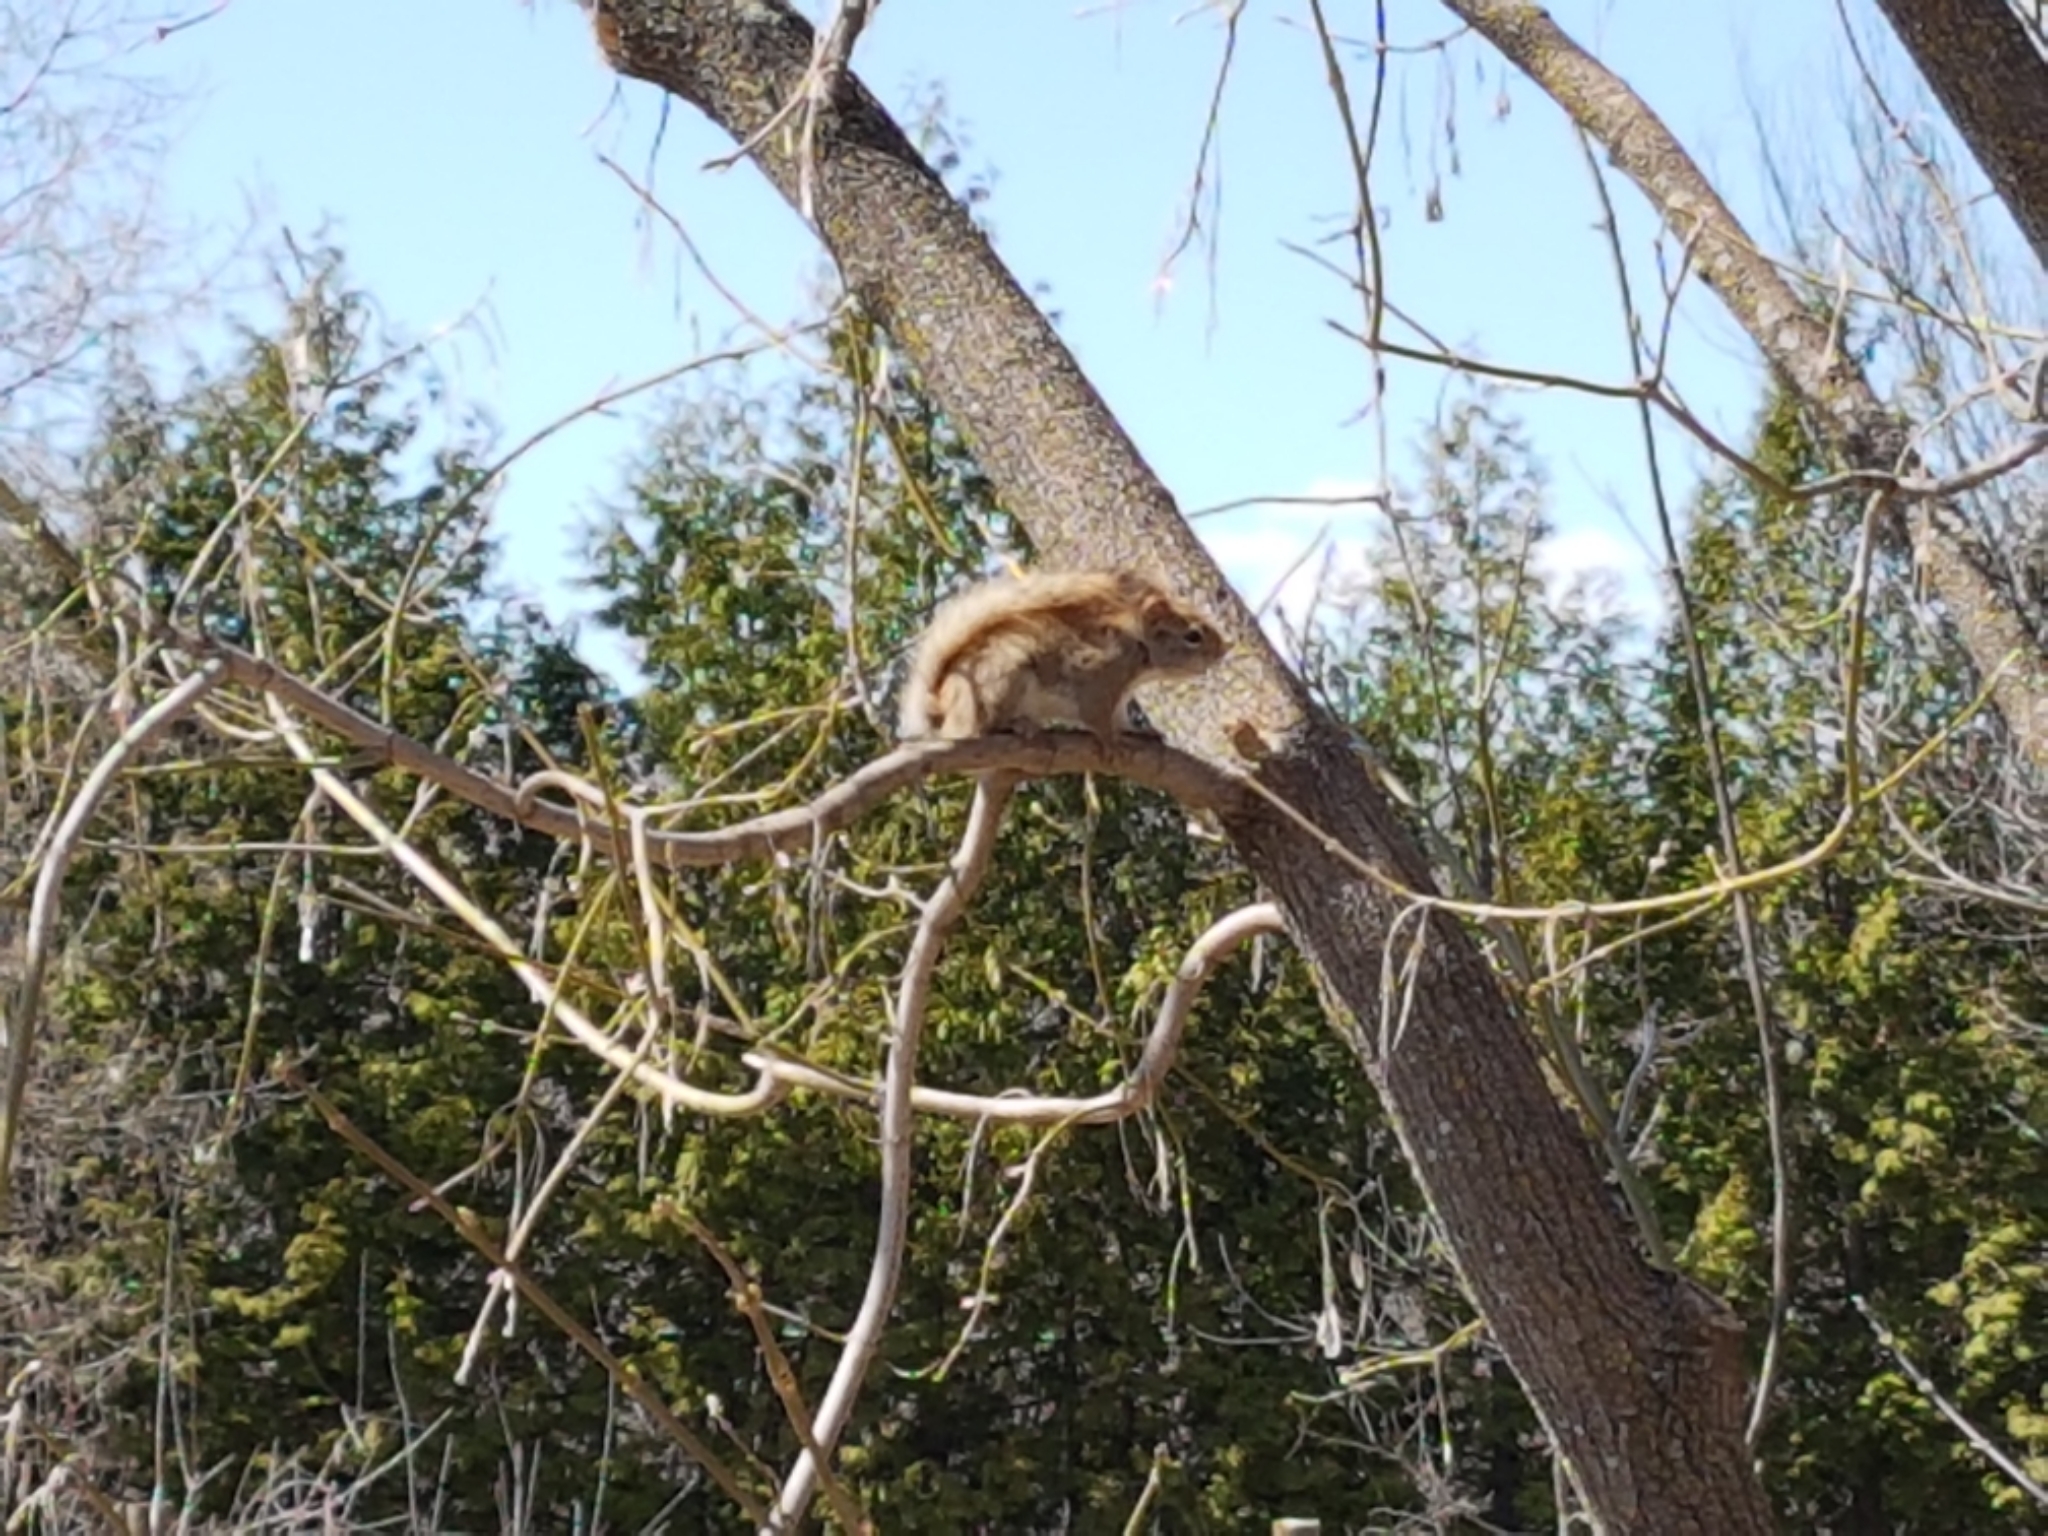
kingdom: Animalia
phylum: Chordata
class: Mammalia
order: Rodentia
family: Sciuridae
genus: Tamiasciurus
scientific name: Tamiasciurus hudsonicus
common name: Red squirrel
